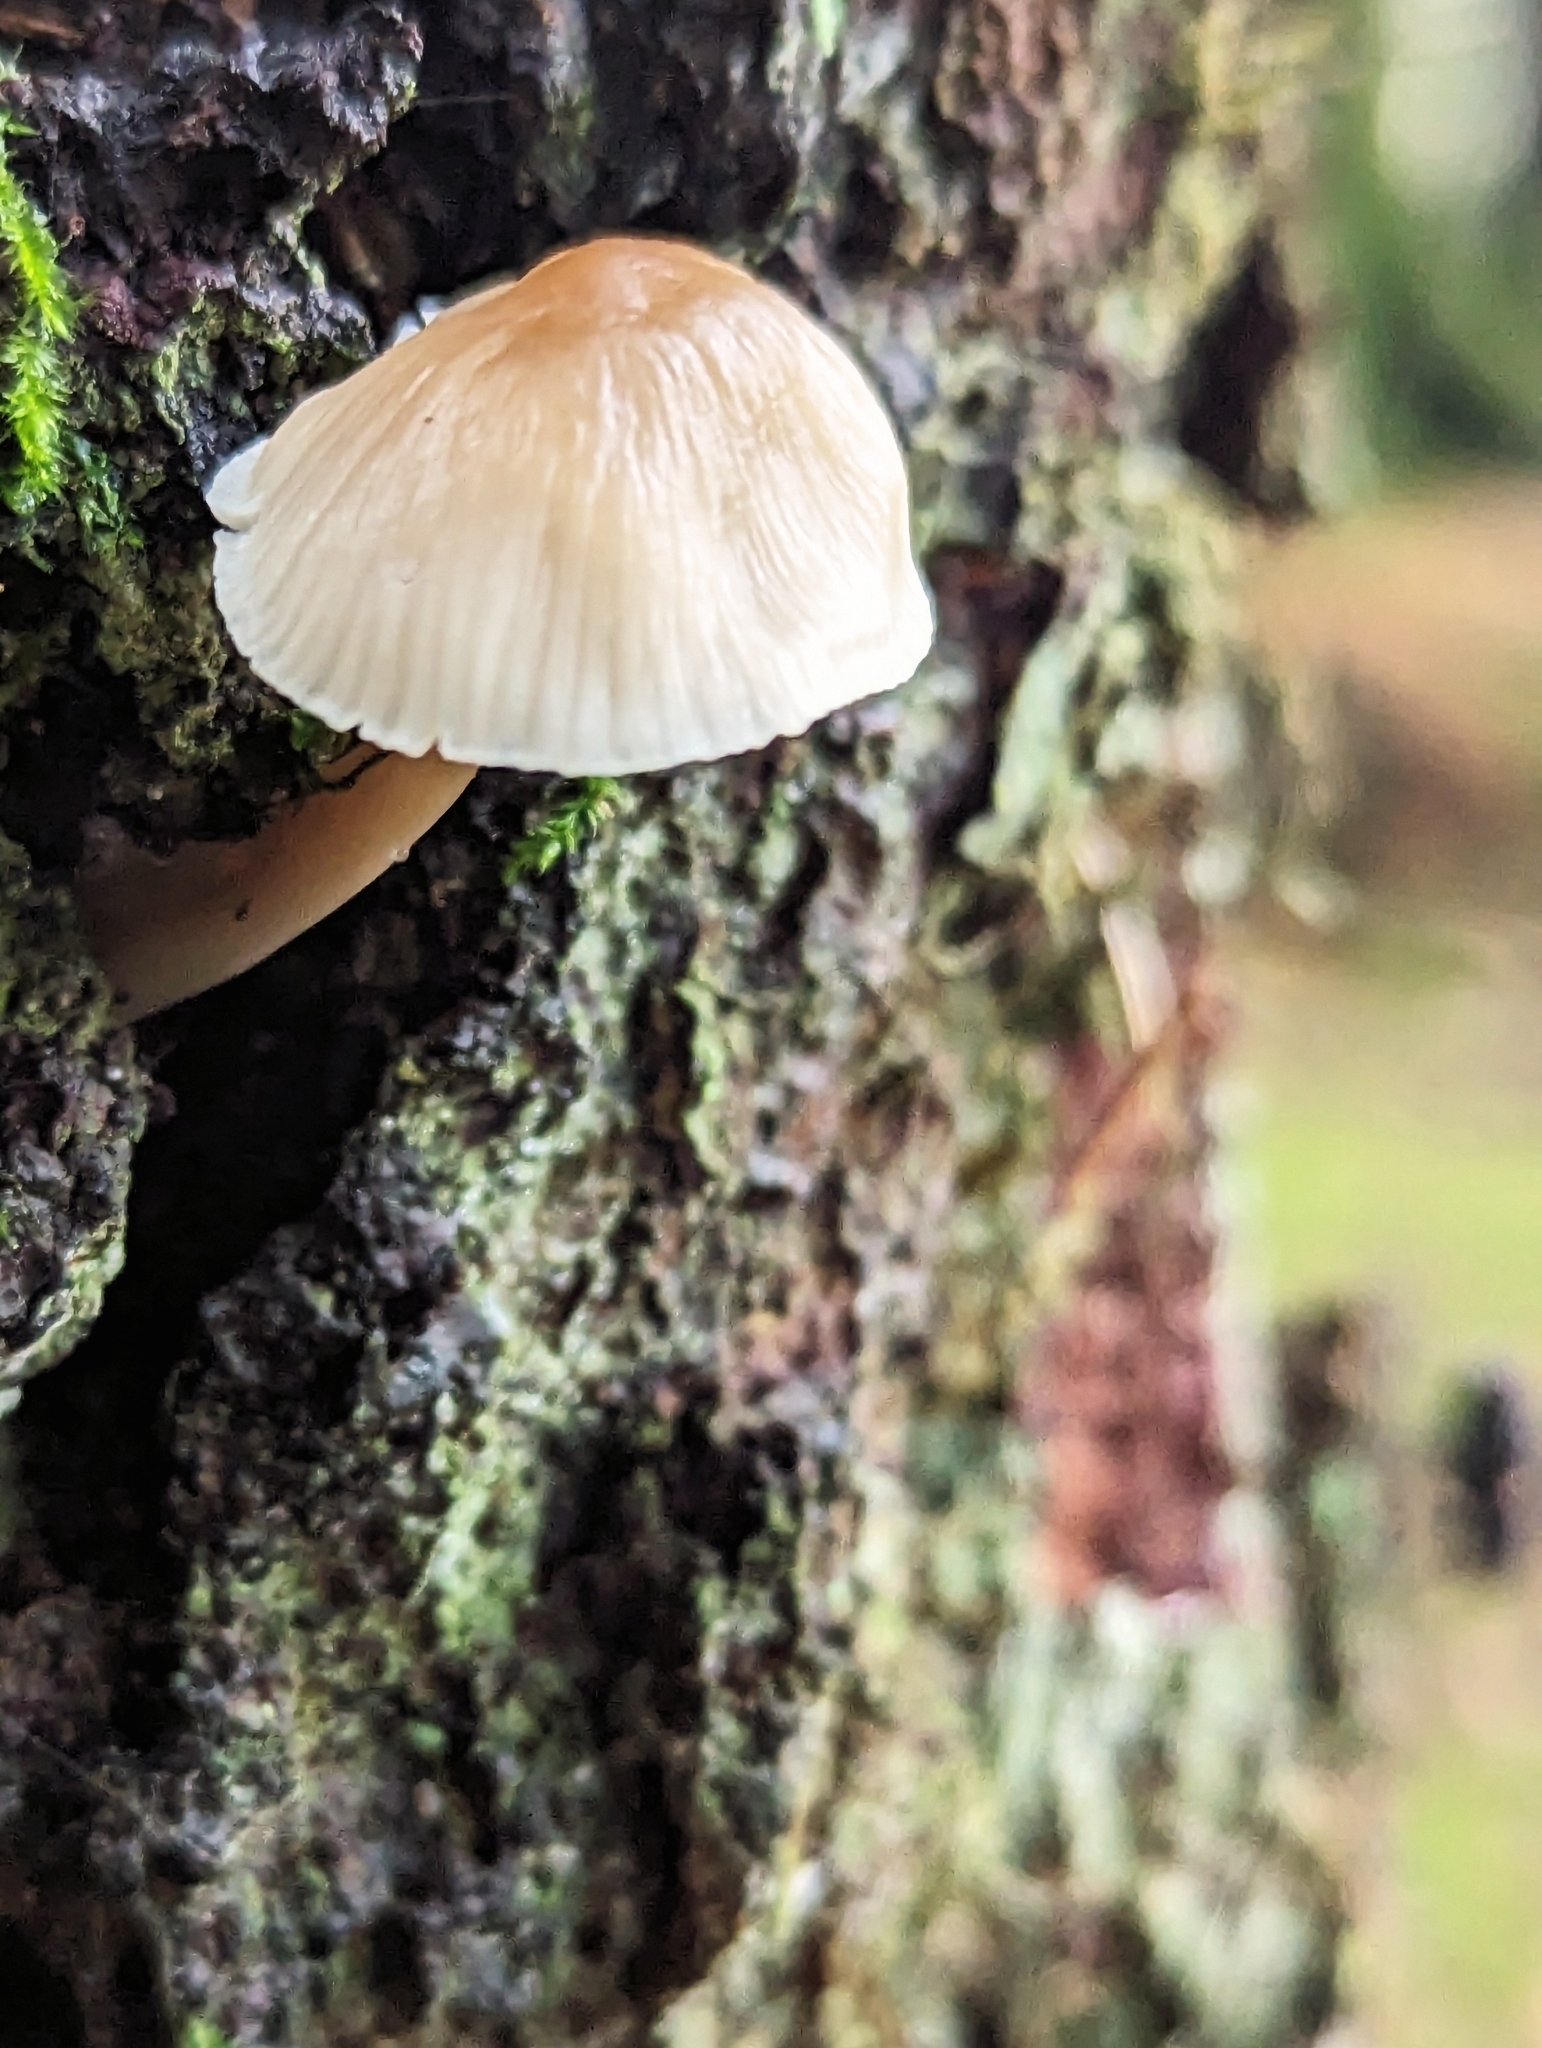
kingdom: Fungi
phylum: Basidiomycota
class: Agaricomycetes
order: Agaricales
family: Mycenaceae
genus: Mycena
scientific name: Mycena galericulata
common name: Bonnet mycena
